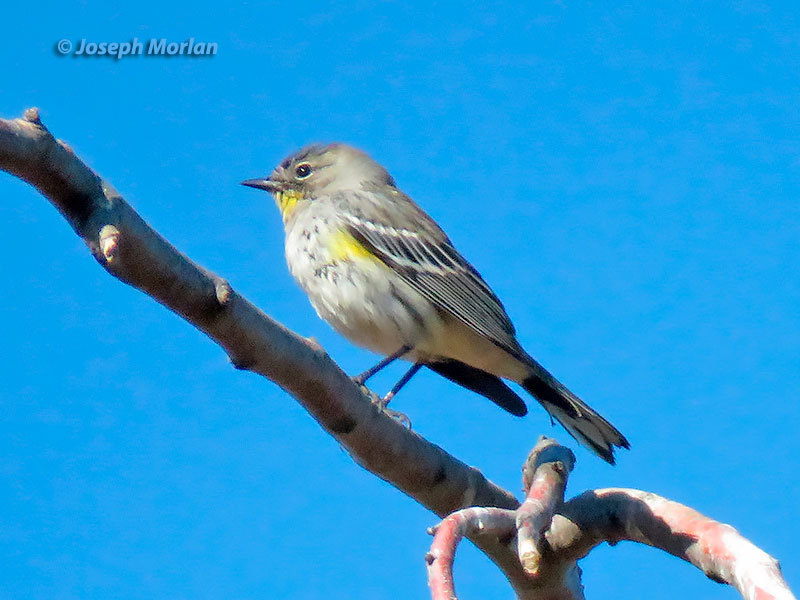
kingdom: Animalia
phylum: Chordata
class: Aves
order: Passeriformes
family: Parulidae
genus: Setophaga
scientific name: Setophaga coronata
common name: Myrtle warbler
